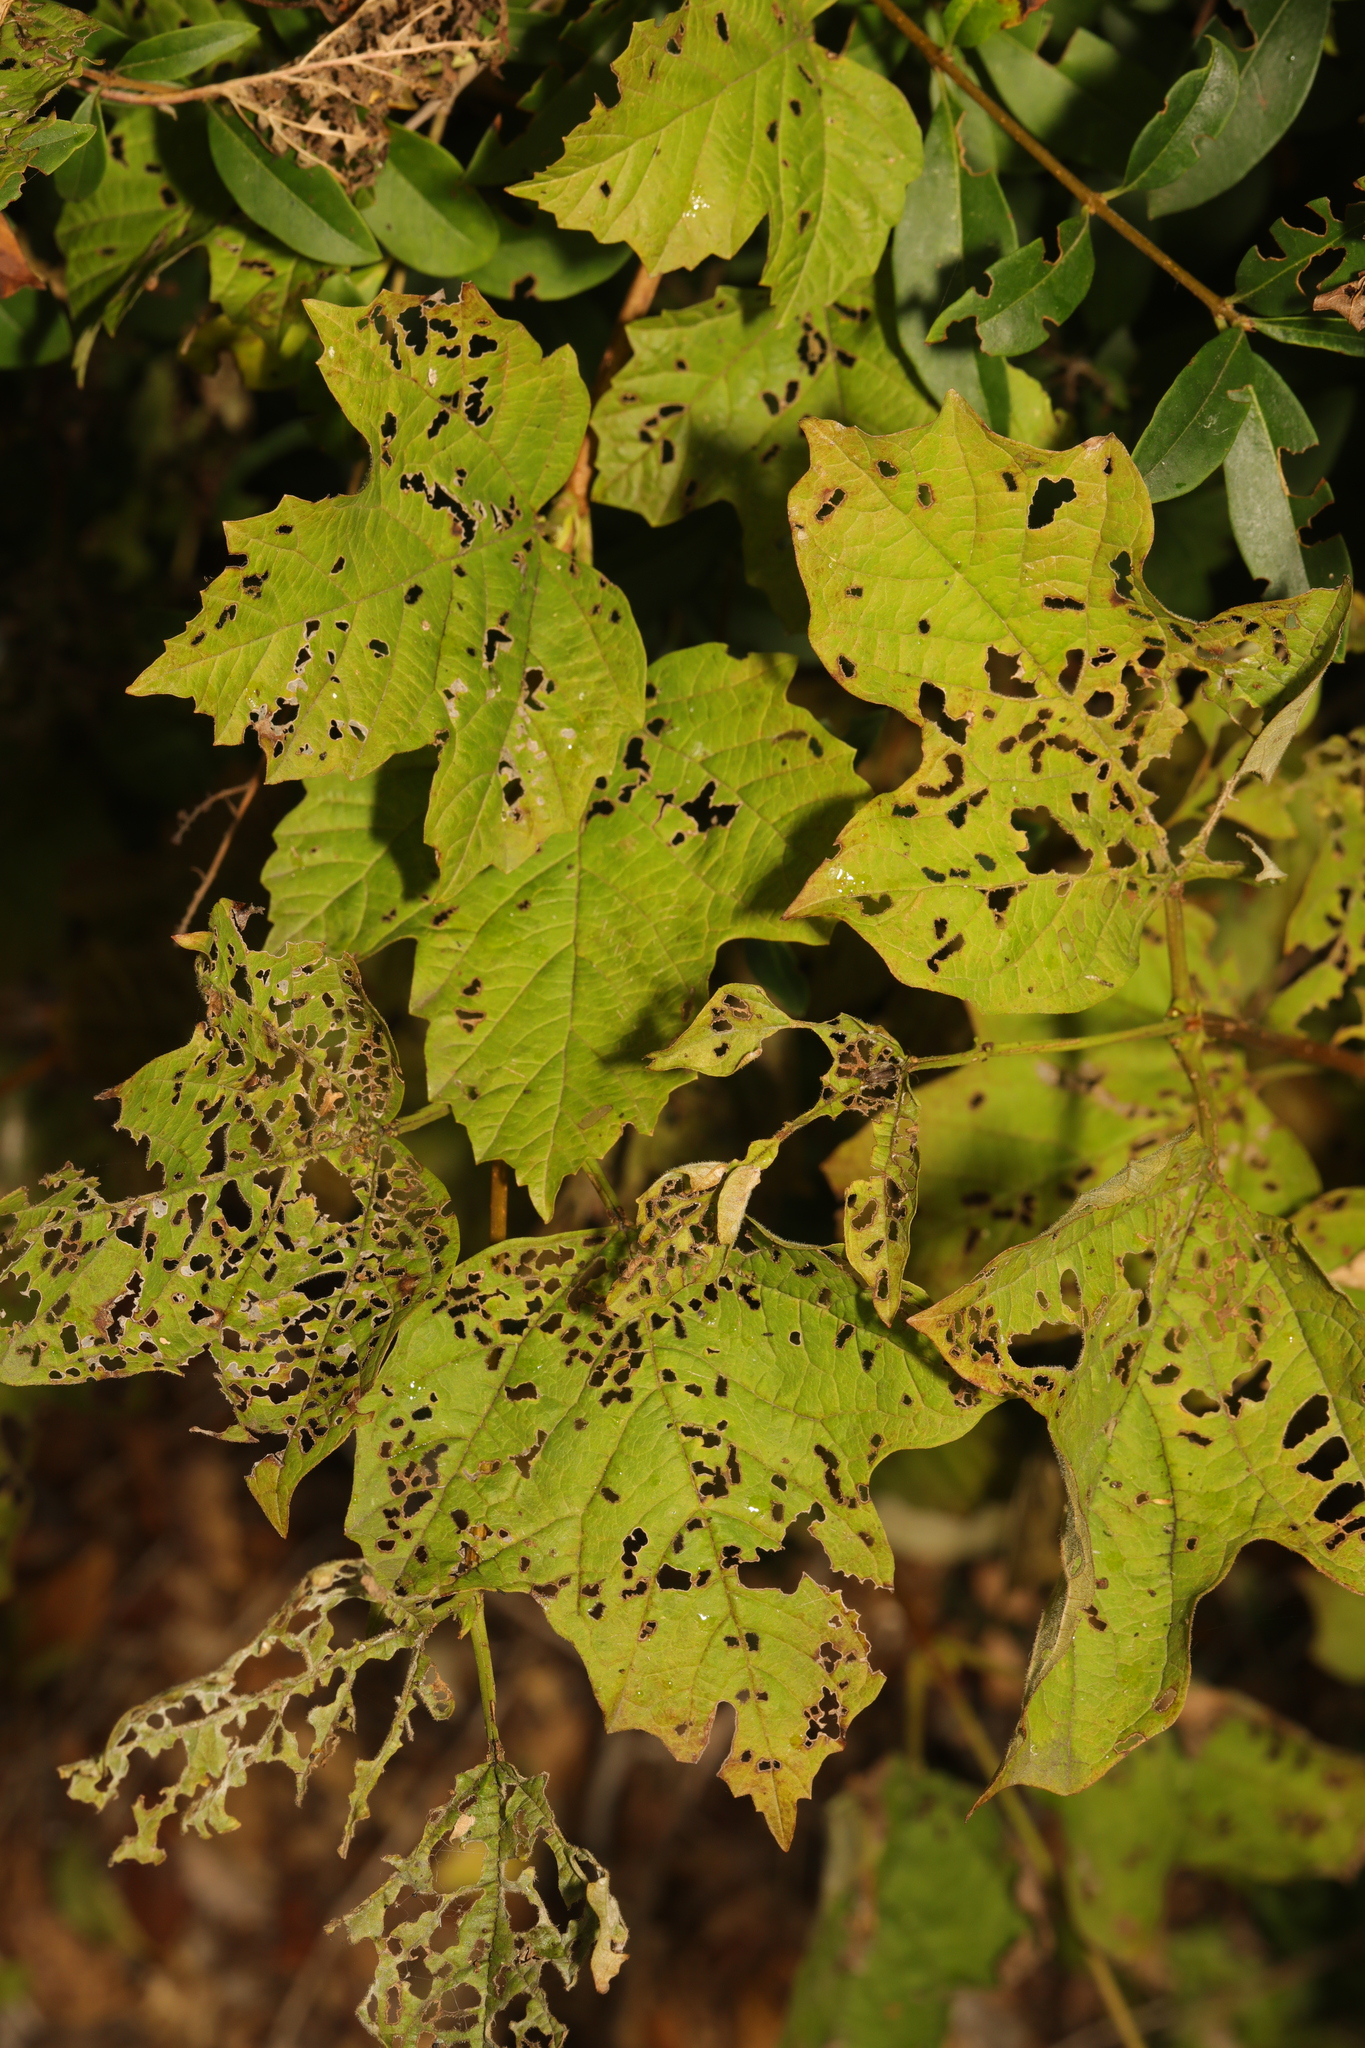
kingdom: Plantae
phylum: Tracheophyta
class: Magnoliopsida
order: Dipsacales
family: Viburnaceae
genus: Viburnum
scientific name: Viburnum opulus
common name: Guelder-rose
